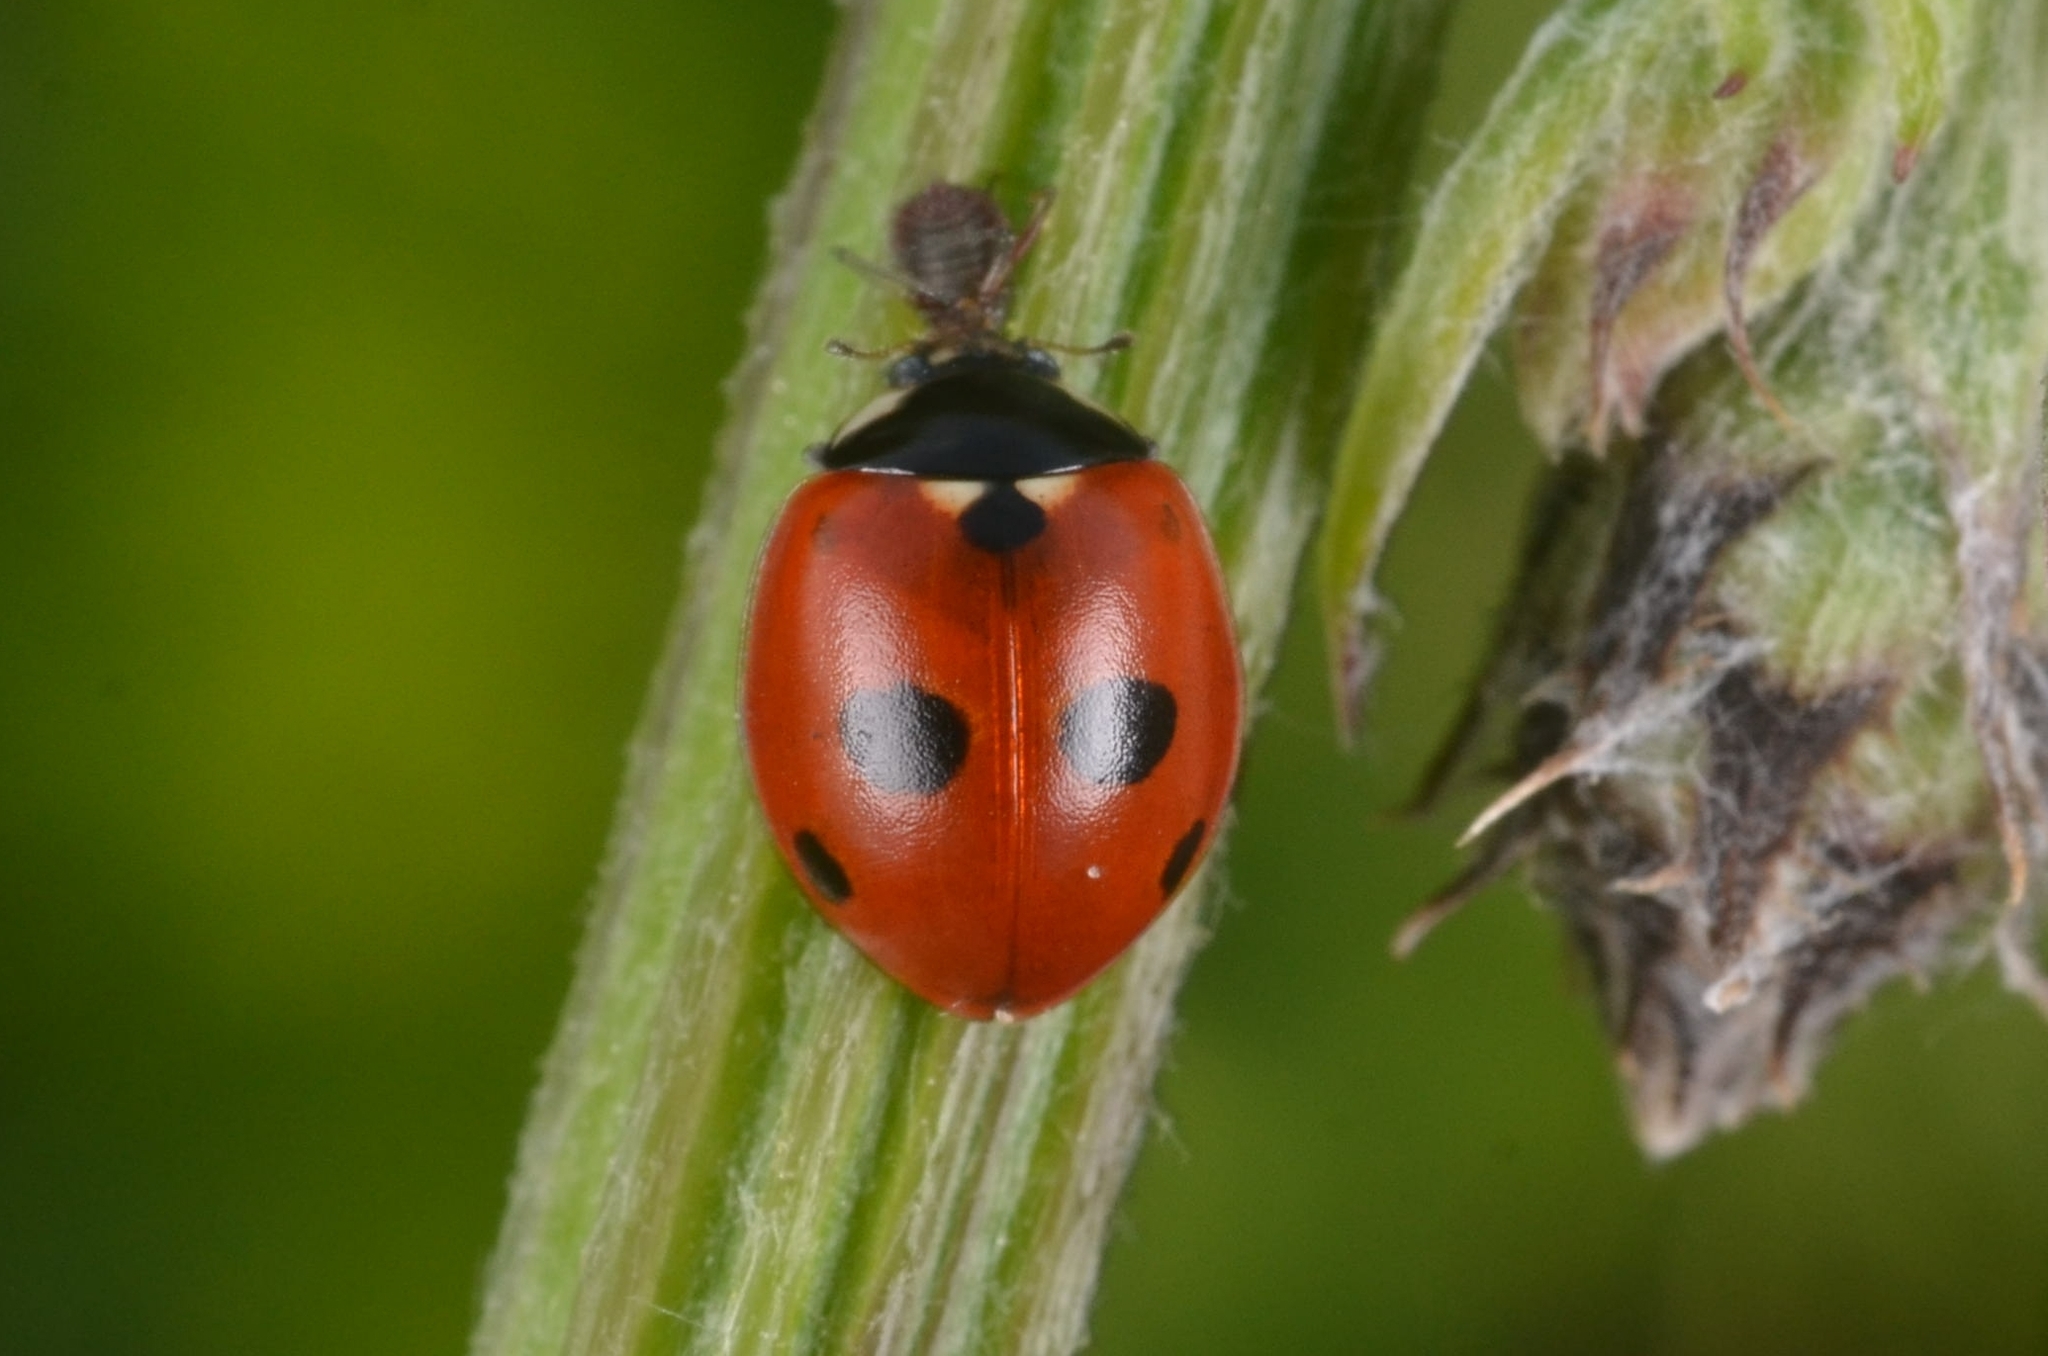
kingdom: Animalia
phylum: Arthropoda
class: Insecta
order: Coleoptera
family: Coccinellidae
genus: Coccinella
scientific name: Coccinella quinquepunctata
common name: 5-spot ladybird
